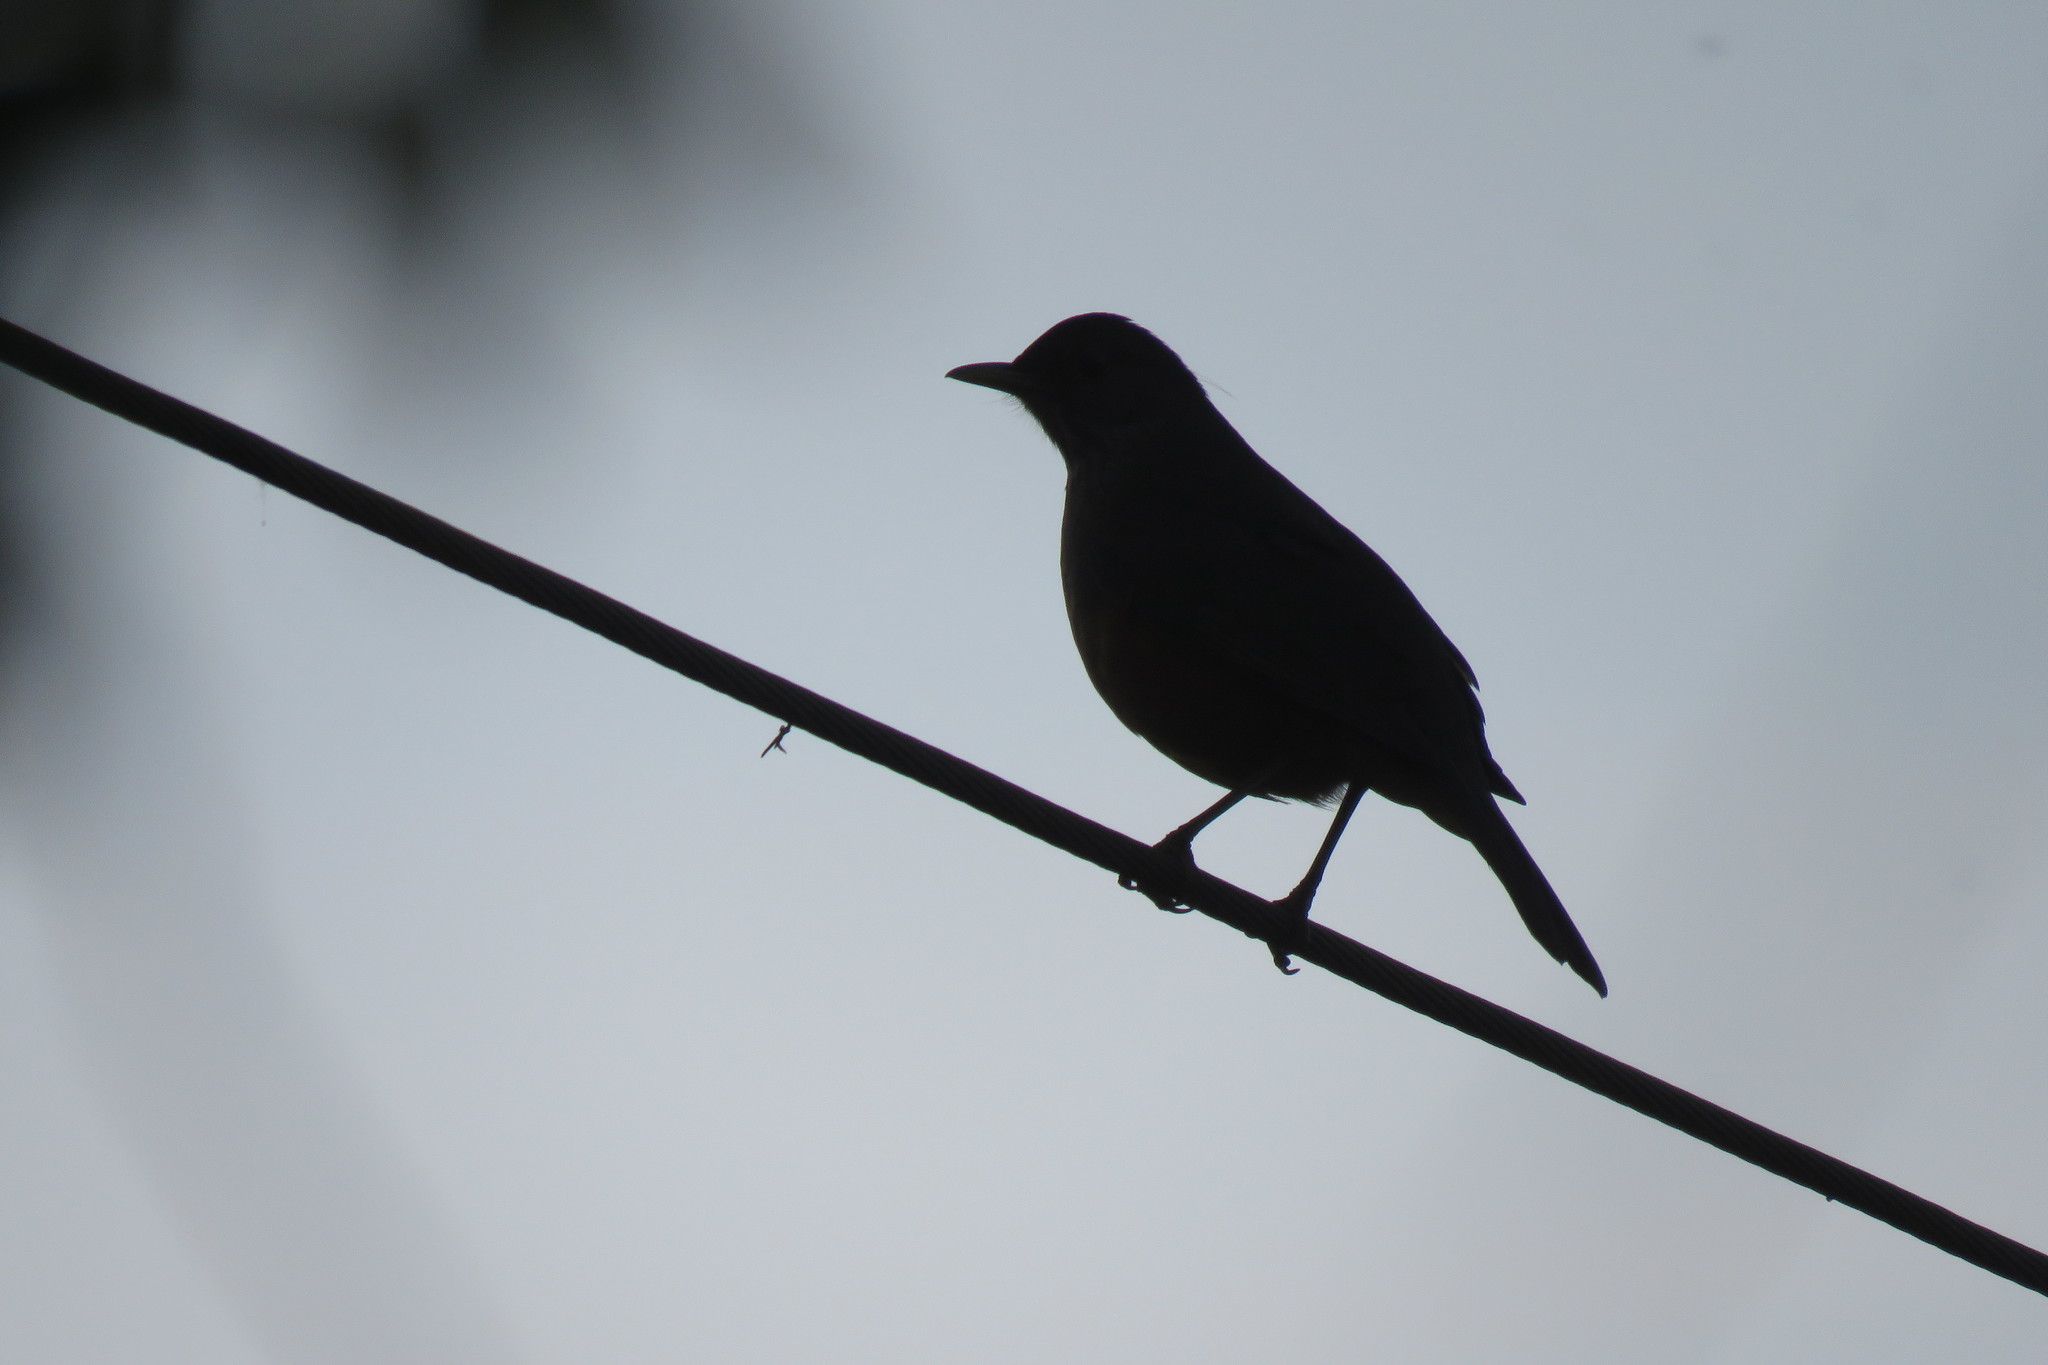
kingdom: Animalia
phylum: Chordata
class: Aves
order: Passeriformes
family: Turdidae
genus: Turdus
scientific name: Turdus rufiventris
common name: Rufous-bellied thrush
